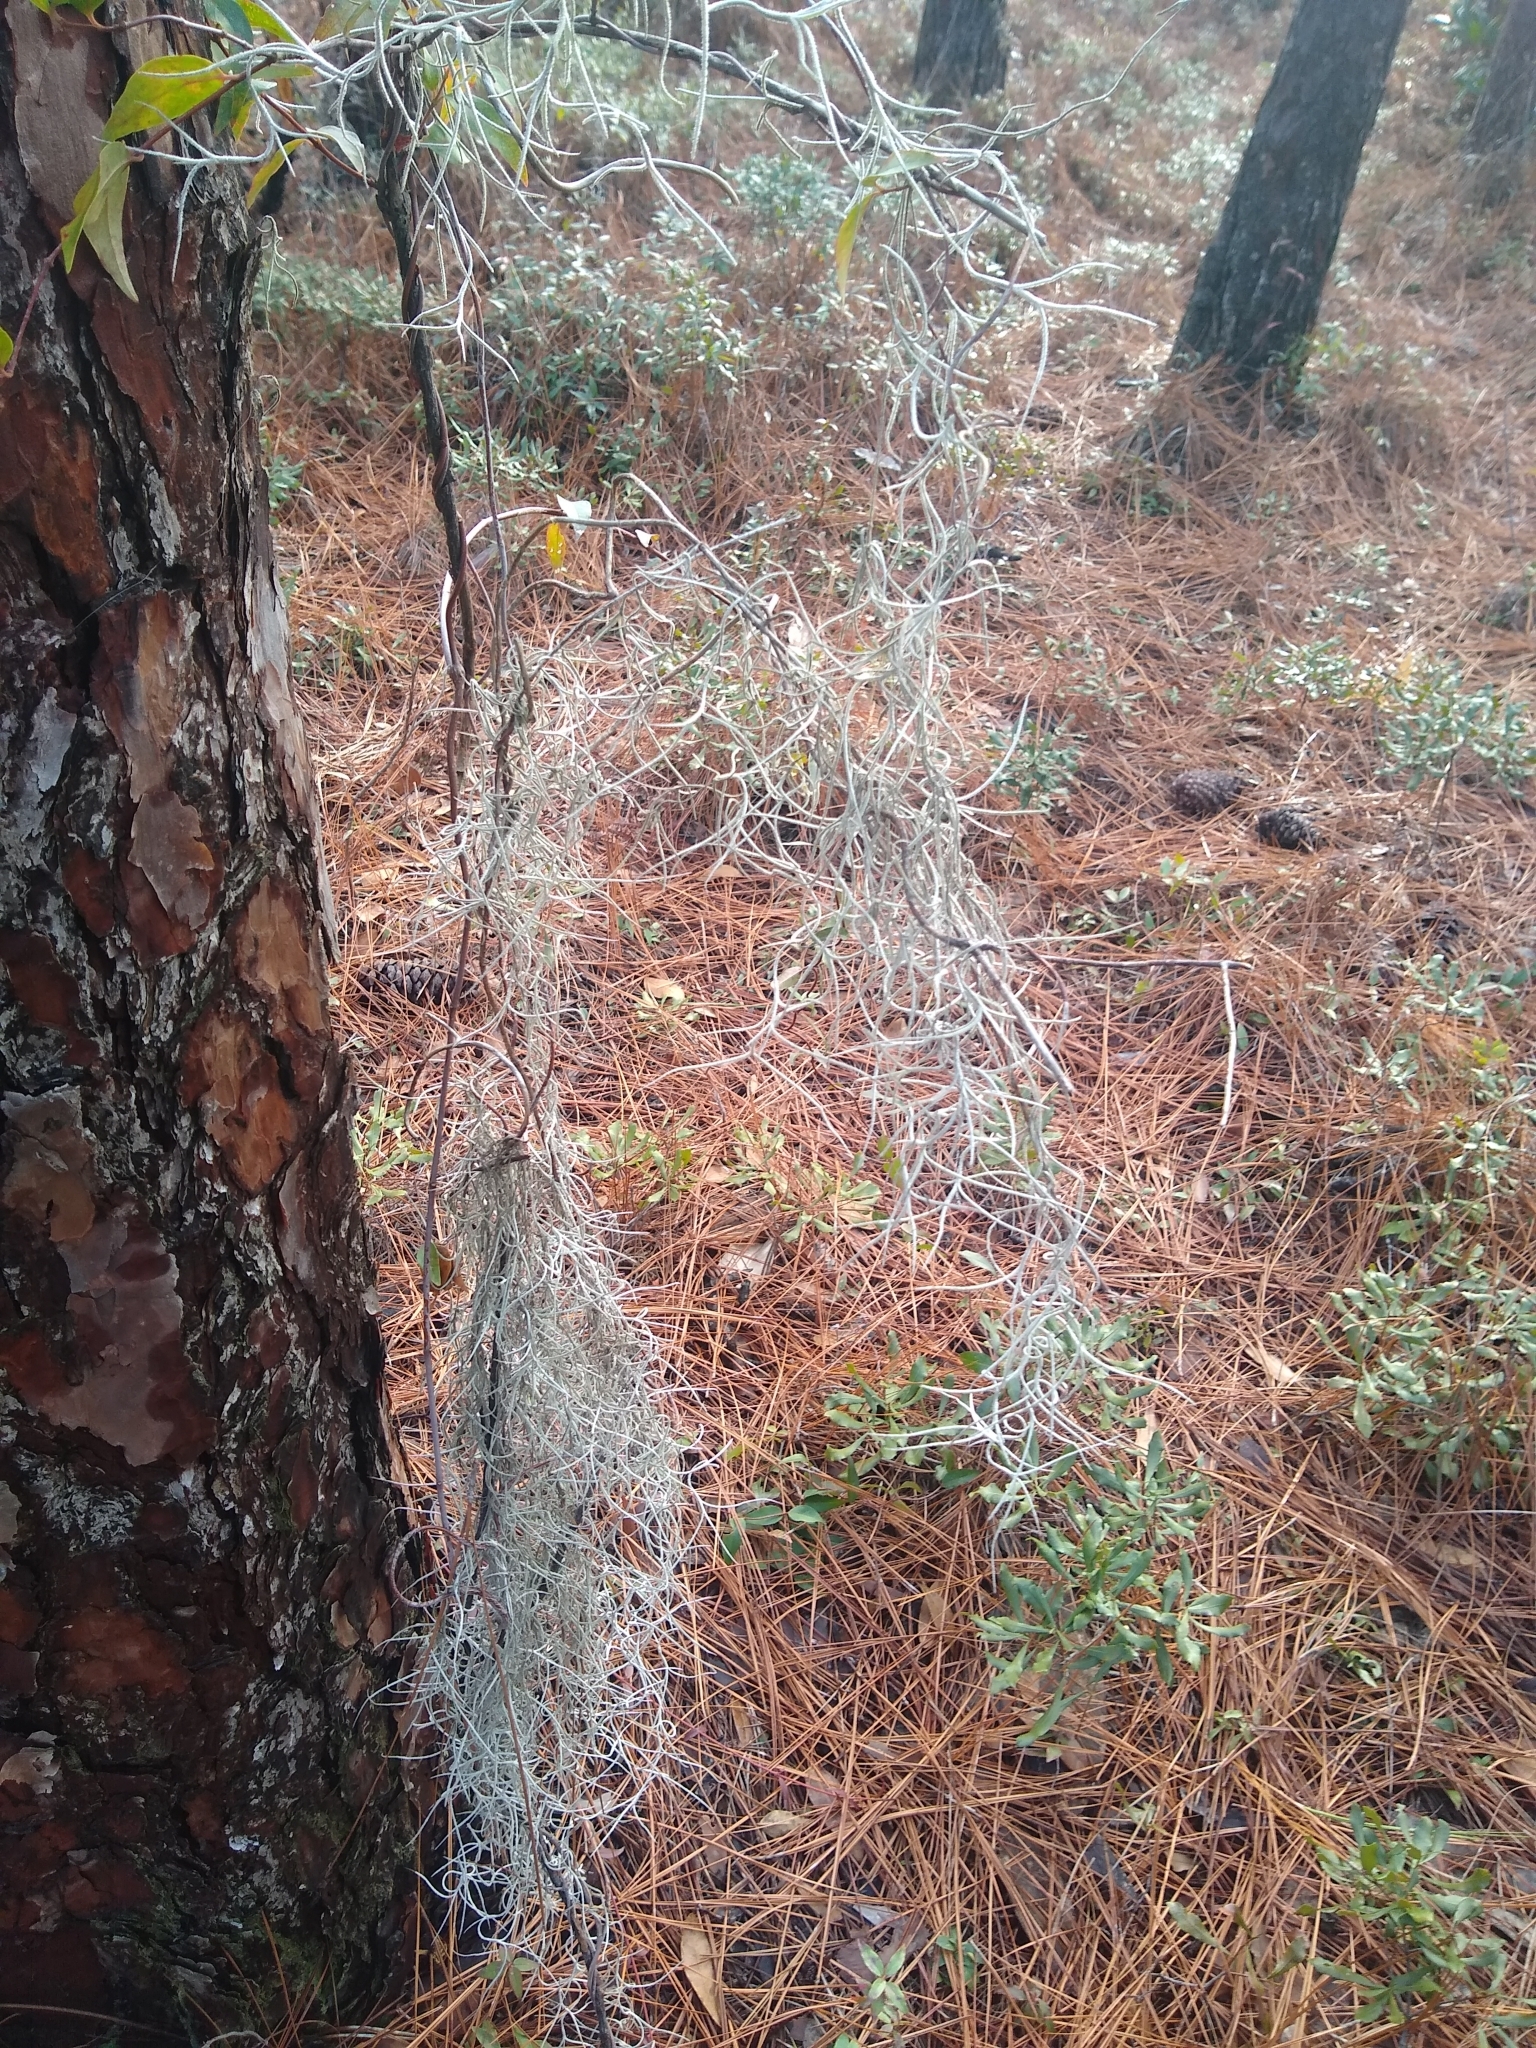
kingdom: Plantae
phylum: Tracheophyta
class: Liliopsida
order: Poales
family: Bromeliaceae
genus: Tillandsia
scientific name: Tillandsia usneoides
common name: Spanish moss
